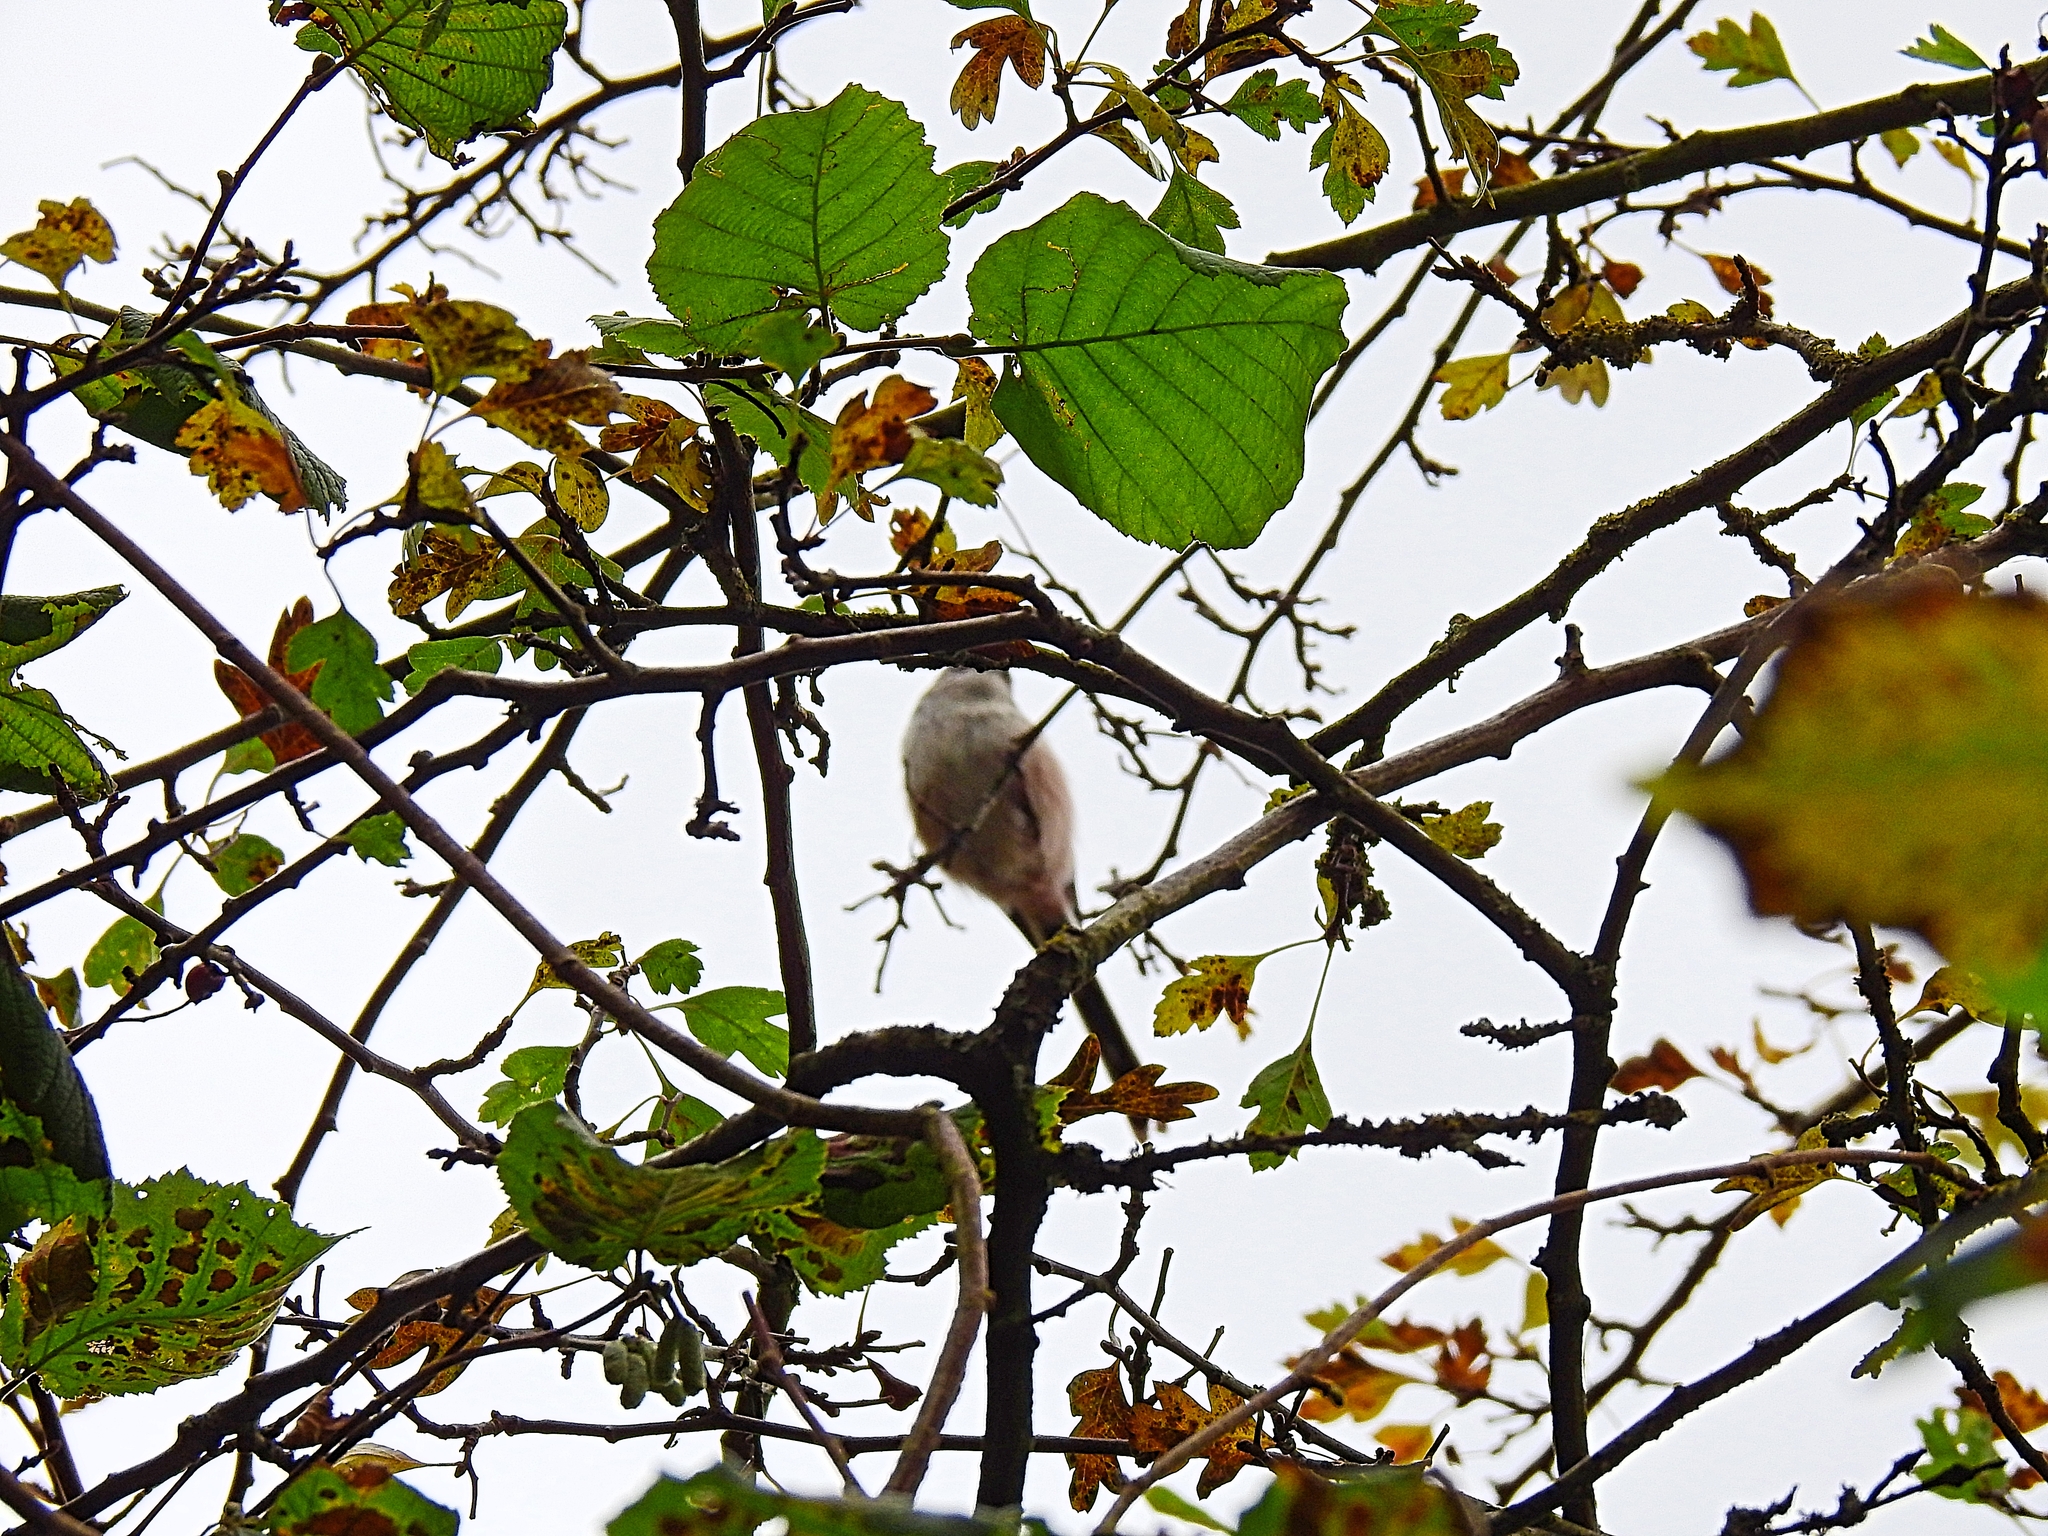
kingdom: Animalia
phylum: Chordata
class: Aves
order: Passeriformes
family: Aegithalidae
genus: Aegithalos
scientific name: Aegithalos caudatus
